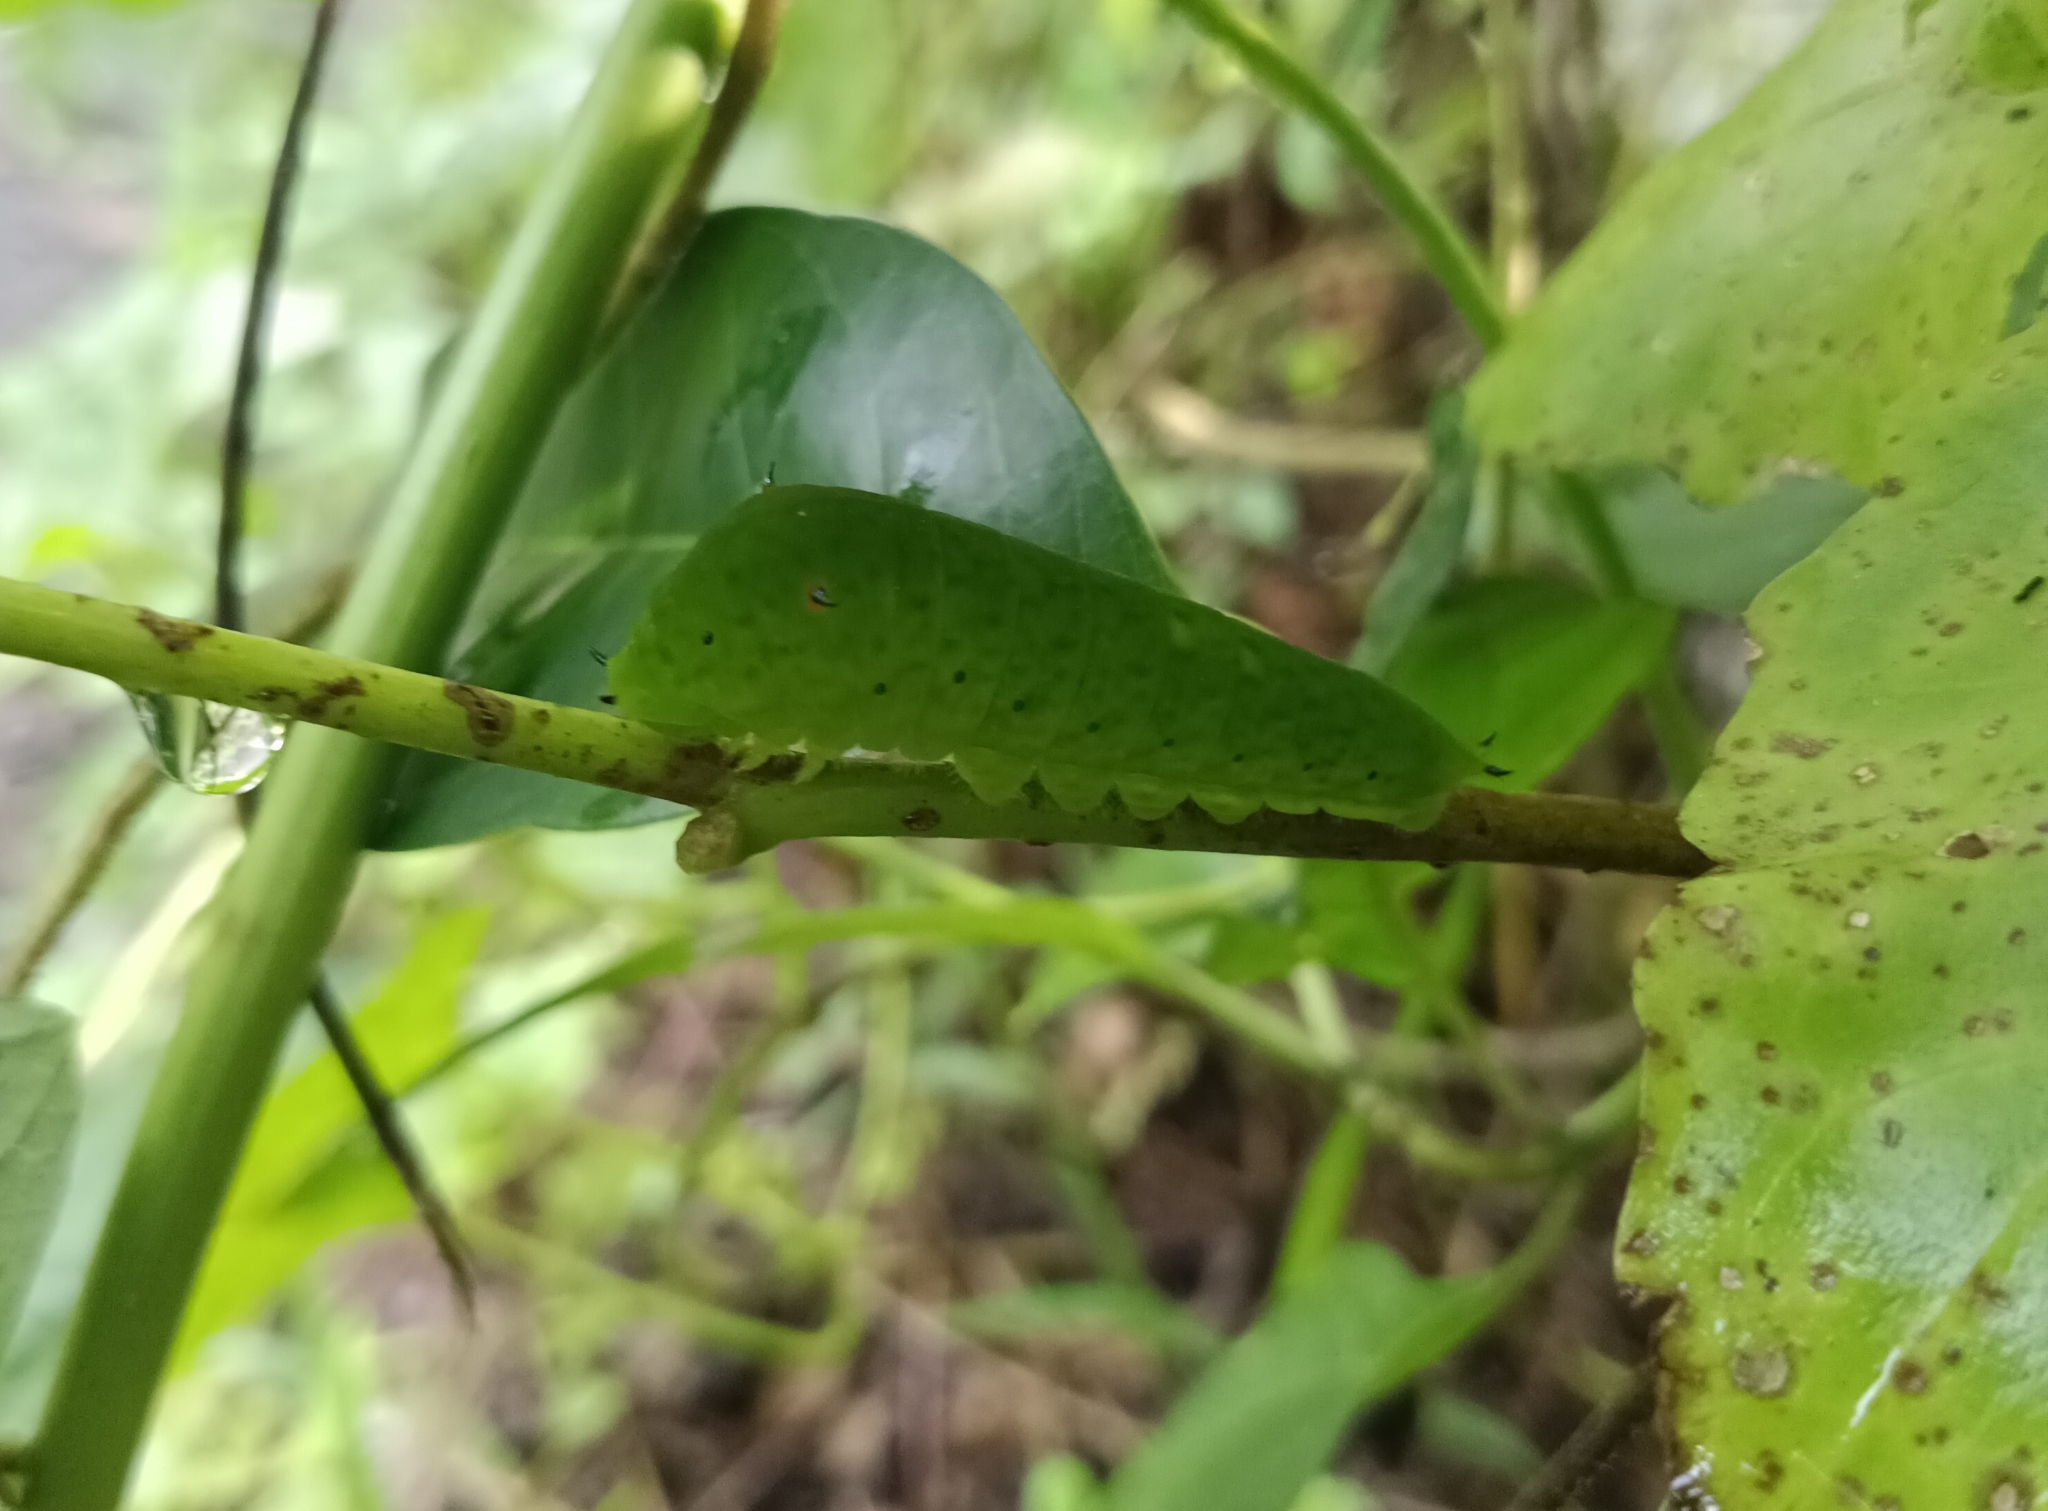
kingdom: Animalia
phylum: Arthropoda
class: Insecta
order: Lepidoptera
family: Papilionidae
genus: Graphium
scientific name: Graphium agamemnon
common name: Tailed jay
